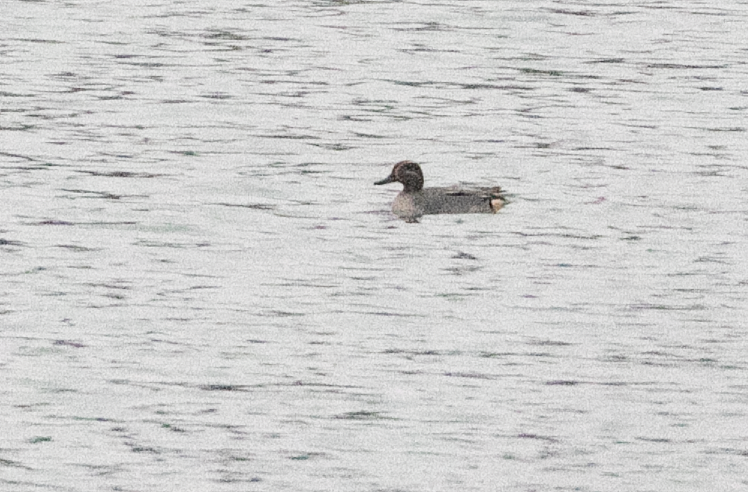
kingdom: Animalia
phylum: Chordata
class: Aves
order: Anseriformes
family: Anatidae
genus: Anas
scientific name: Anas crecca
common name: Eurasian teal
